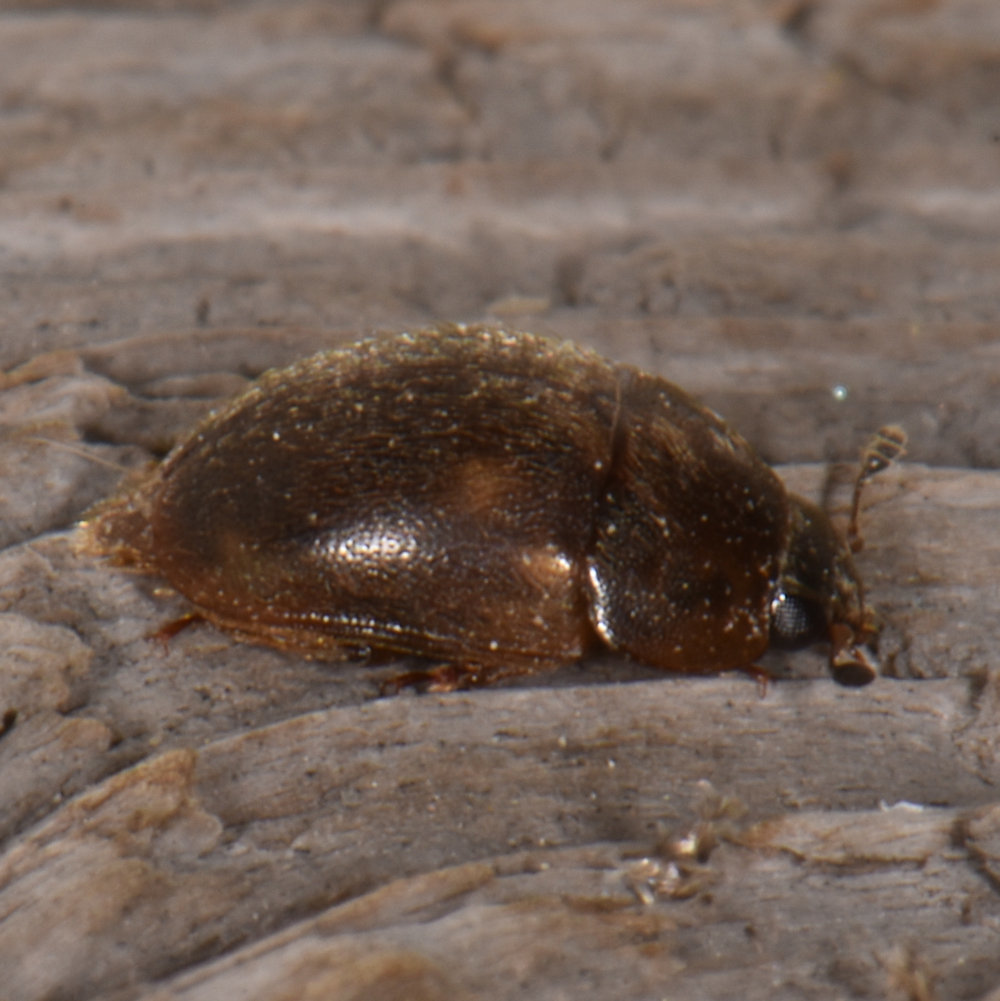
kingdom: Animalia
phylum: Arthropoda
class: Insecta
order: Coleoptera
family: Nitidulidae
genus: Amphicrossus
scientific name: Amphicrossus ciliatus
